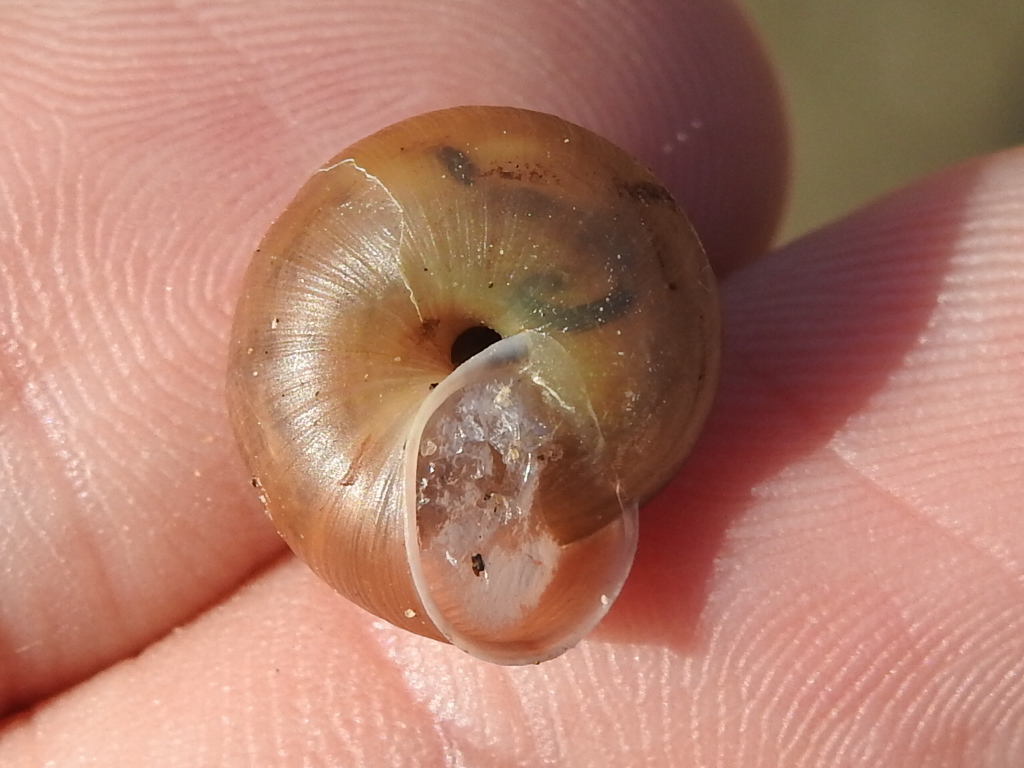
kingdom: Animalia
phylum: Mollusca
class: Gastropoda
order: Stylommatophora
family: Camaenidae
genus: Bradybaena
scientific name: Bradybaena similaris
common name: Asian trampsnail
